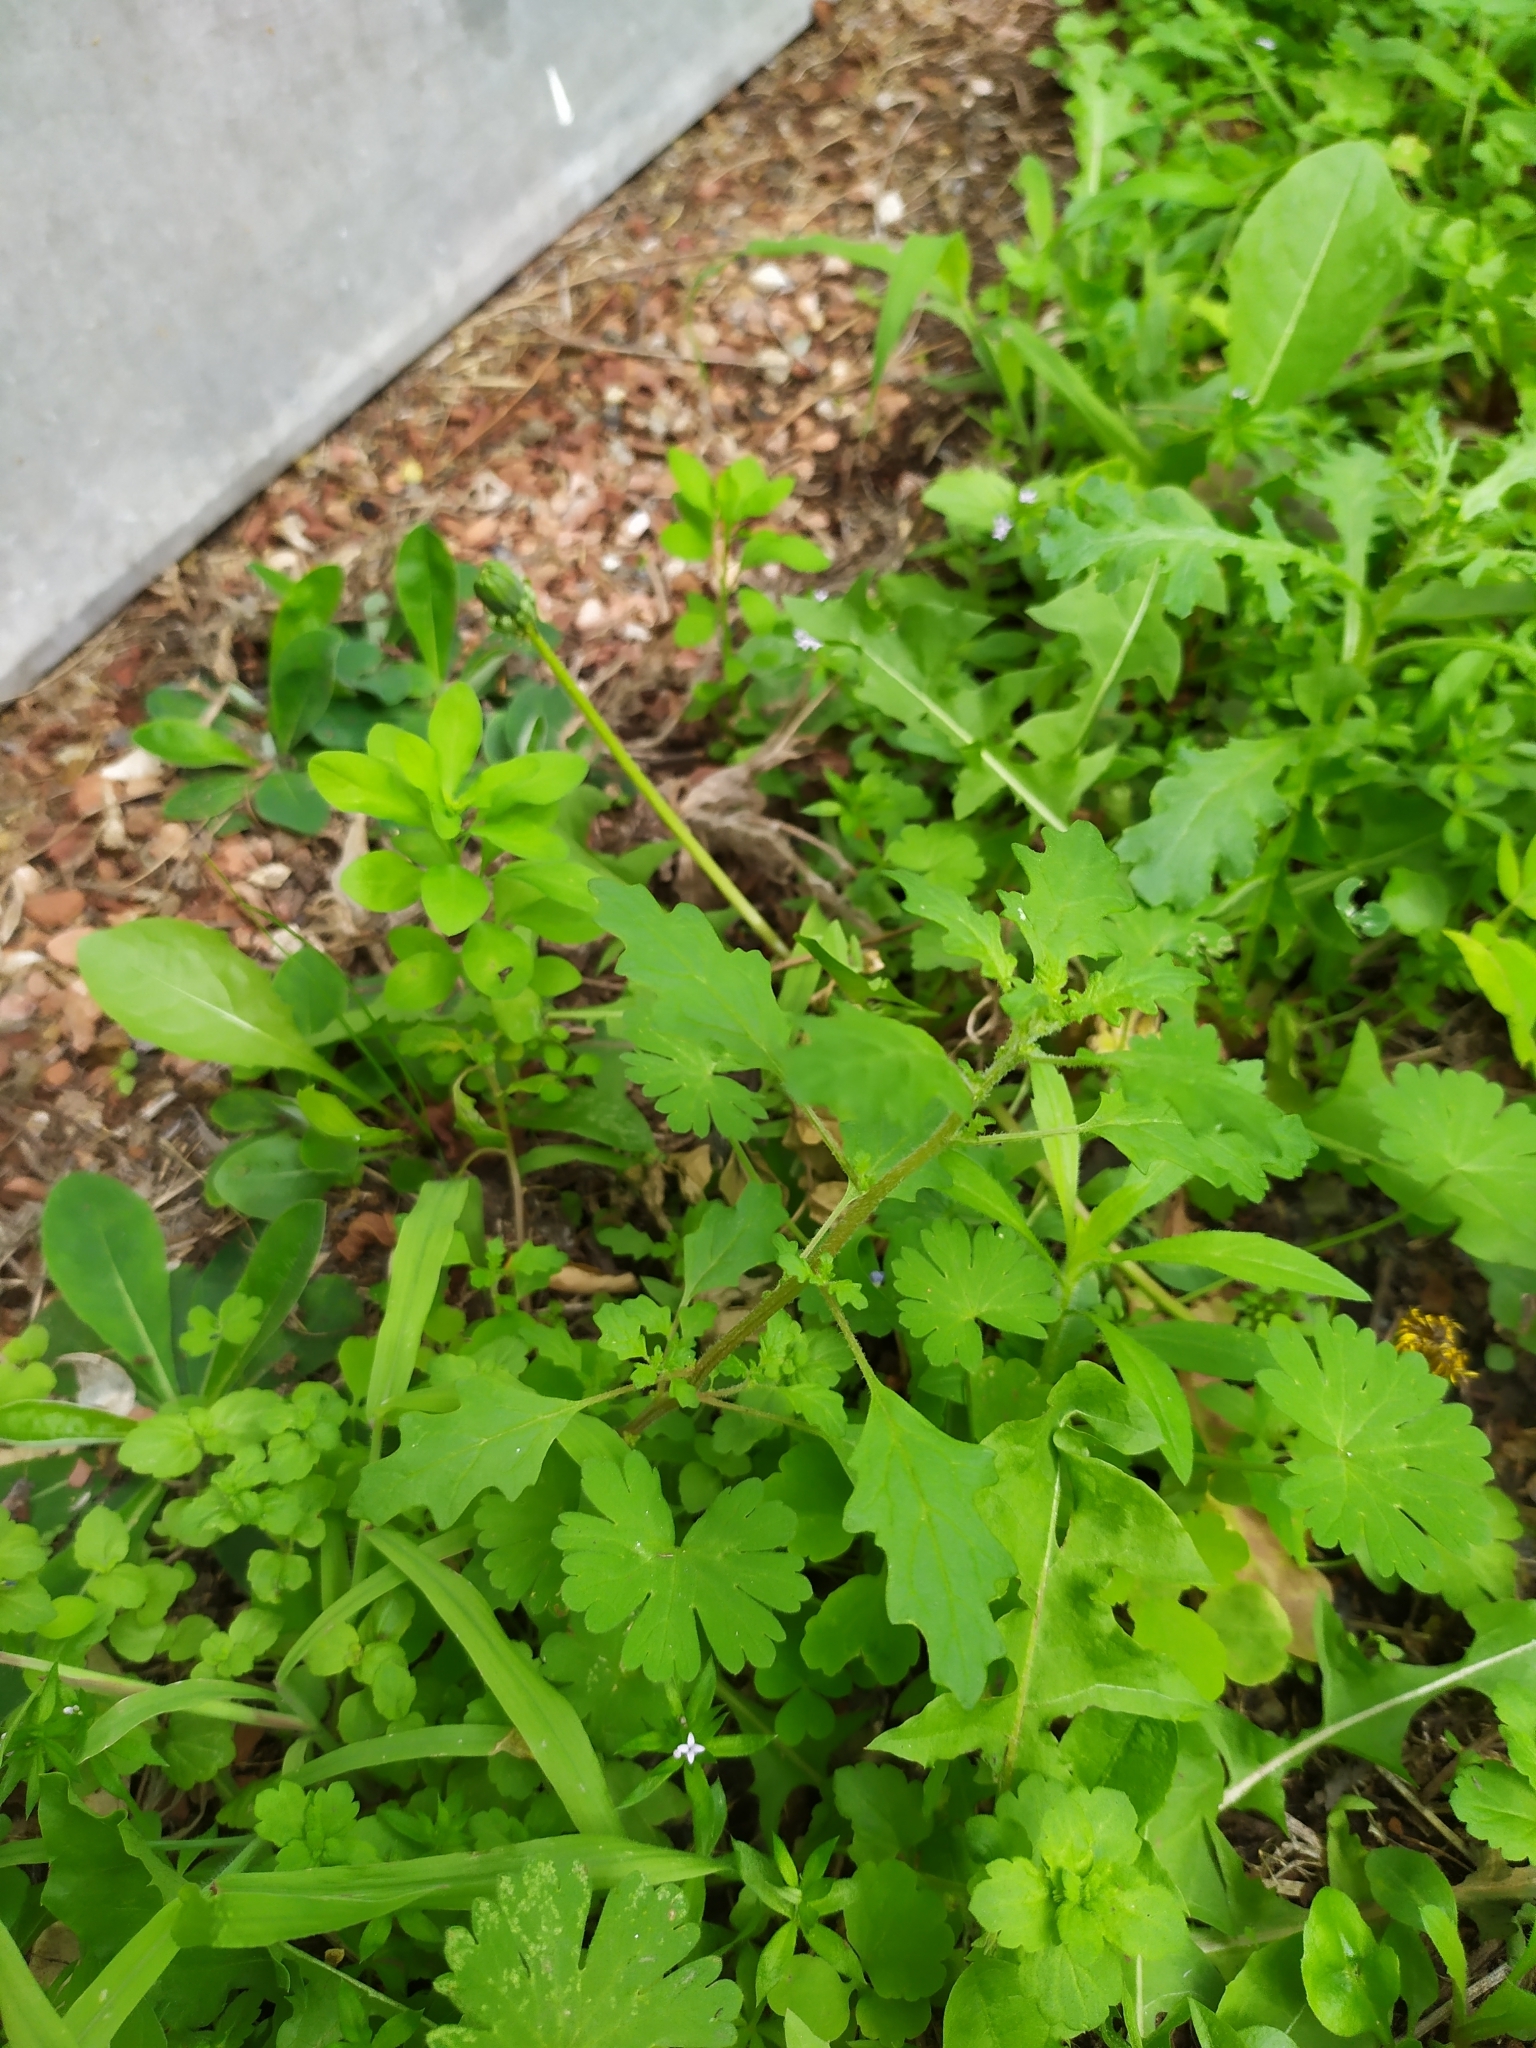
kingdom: Plantae
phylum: Tracheophyta
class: Magnoliopsida
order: Caryophyllales
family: Amaranthaceae
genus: Dysphania
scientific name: Dysphania pumilio
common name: Clammy goosefoot
